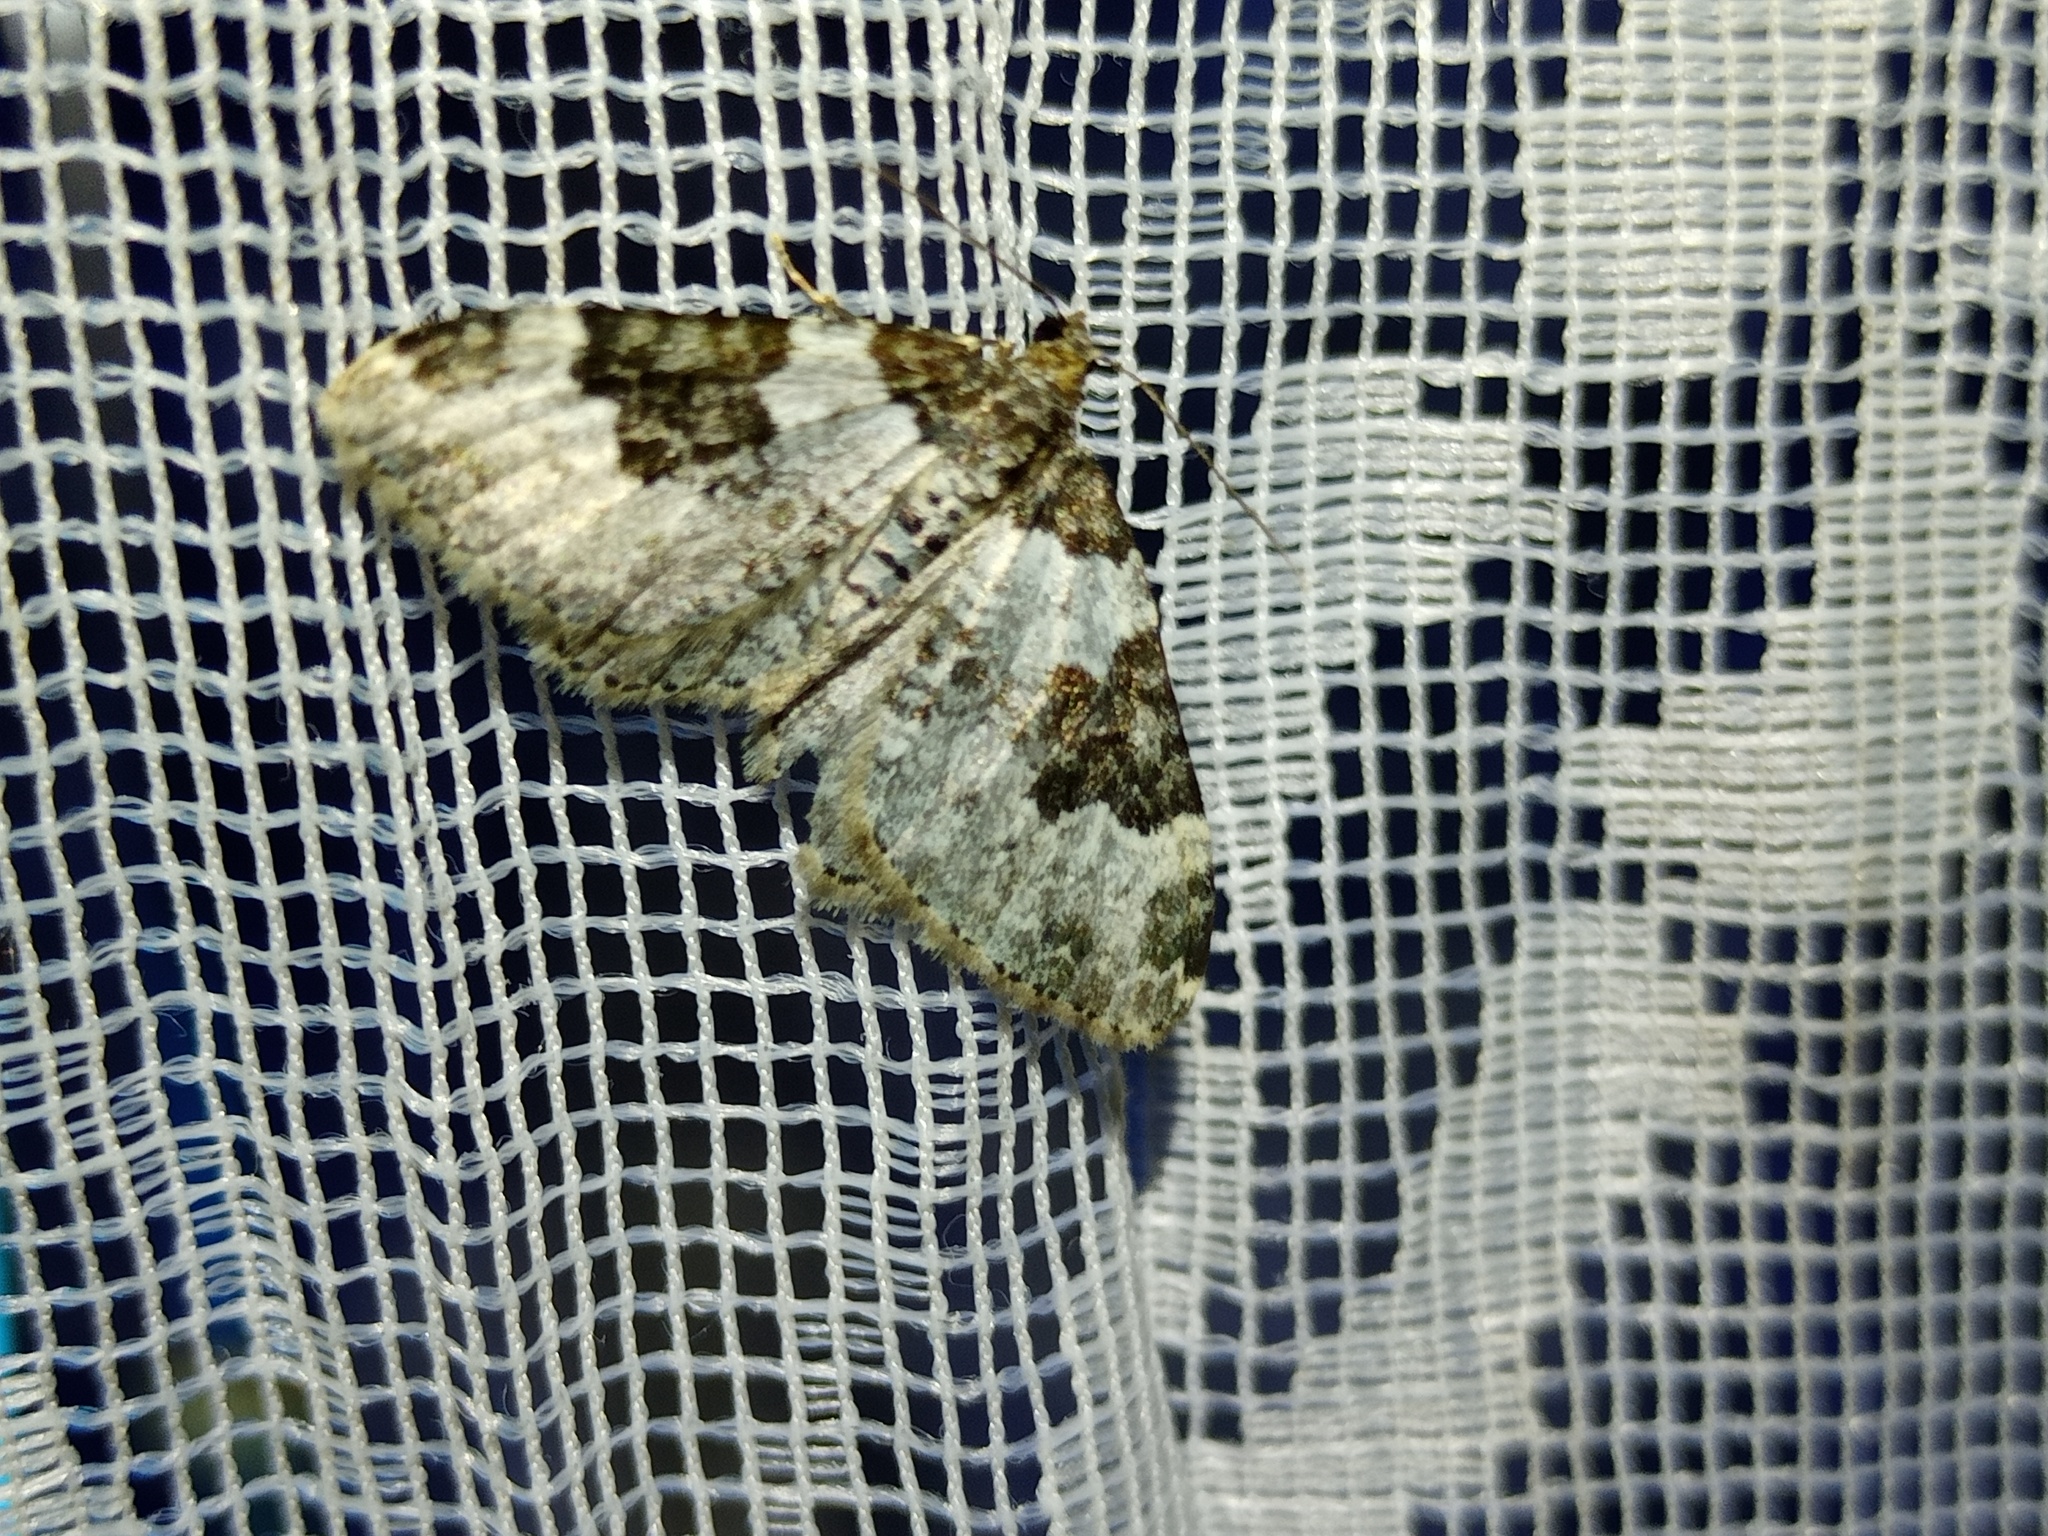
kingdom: Animalia
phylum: Arthropoda
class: Insecta
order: Lepidoptera
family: Geometridae
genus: Xanthorhoe
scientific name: Xanthorhoe fluctuata
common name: Garden carpet
